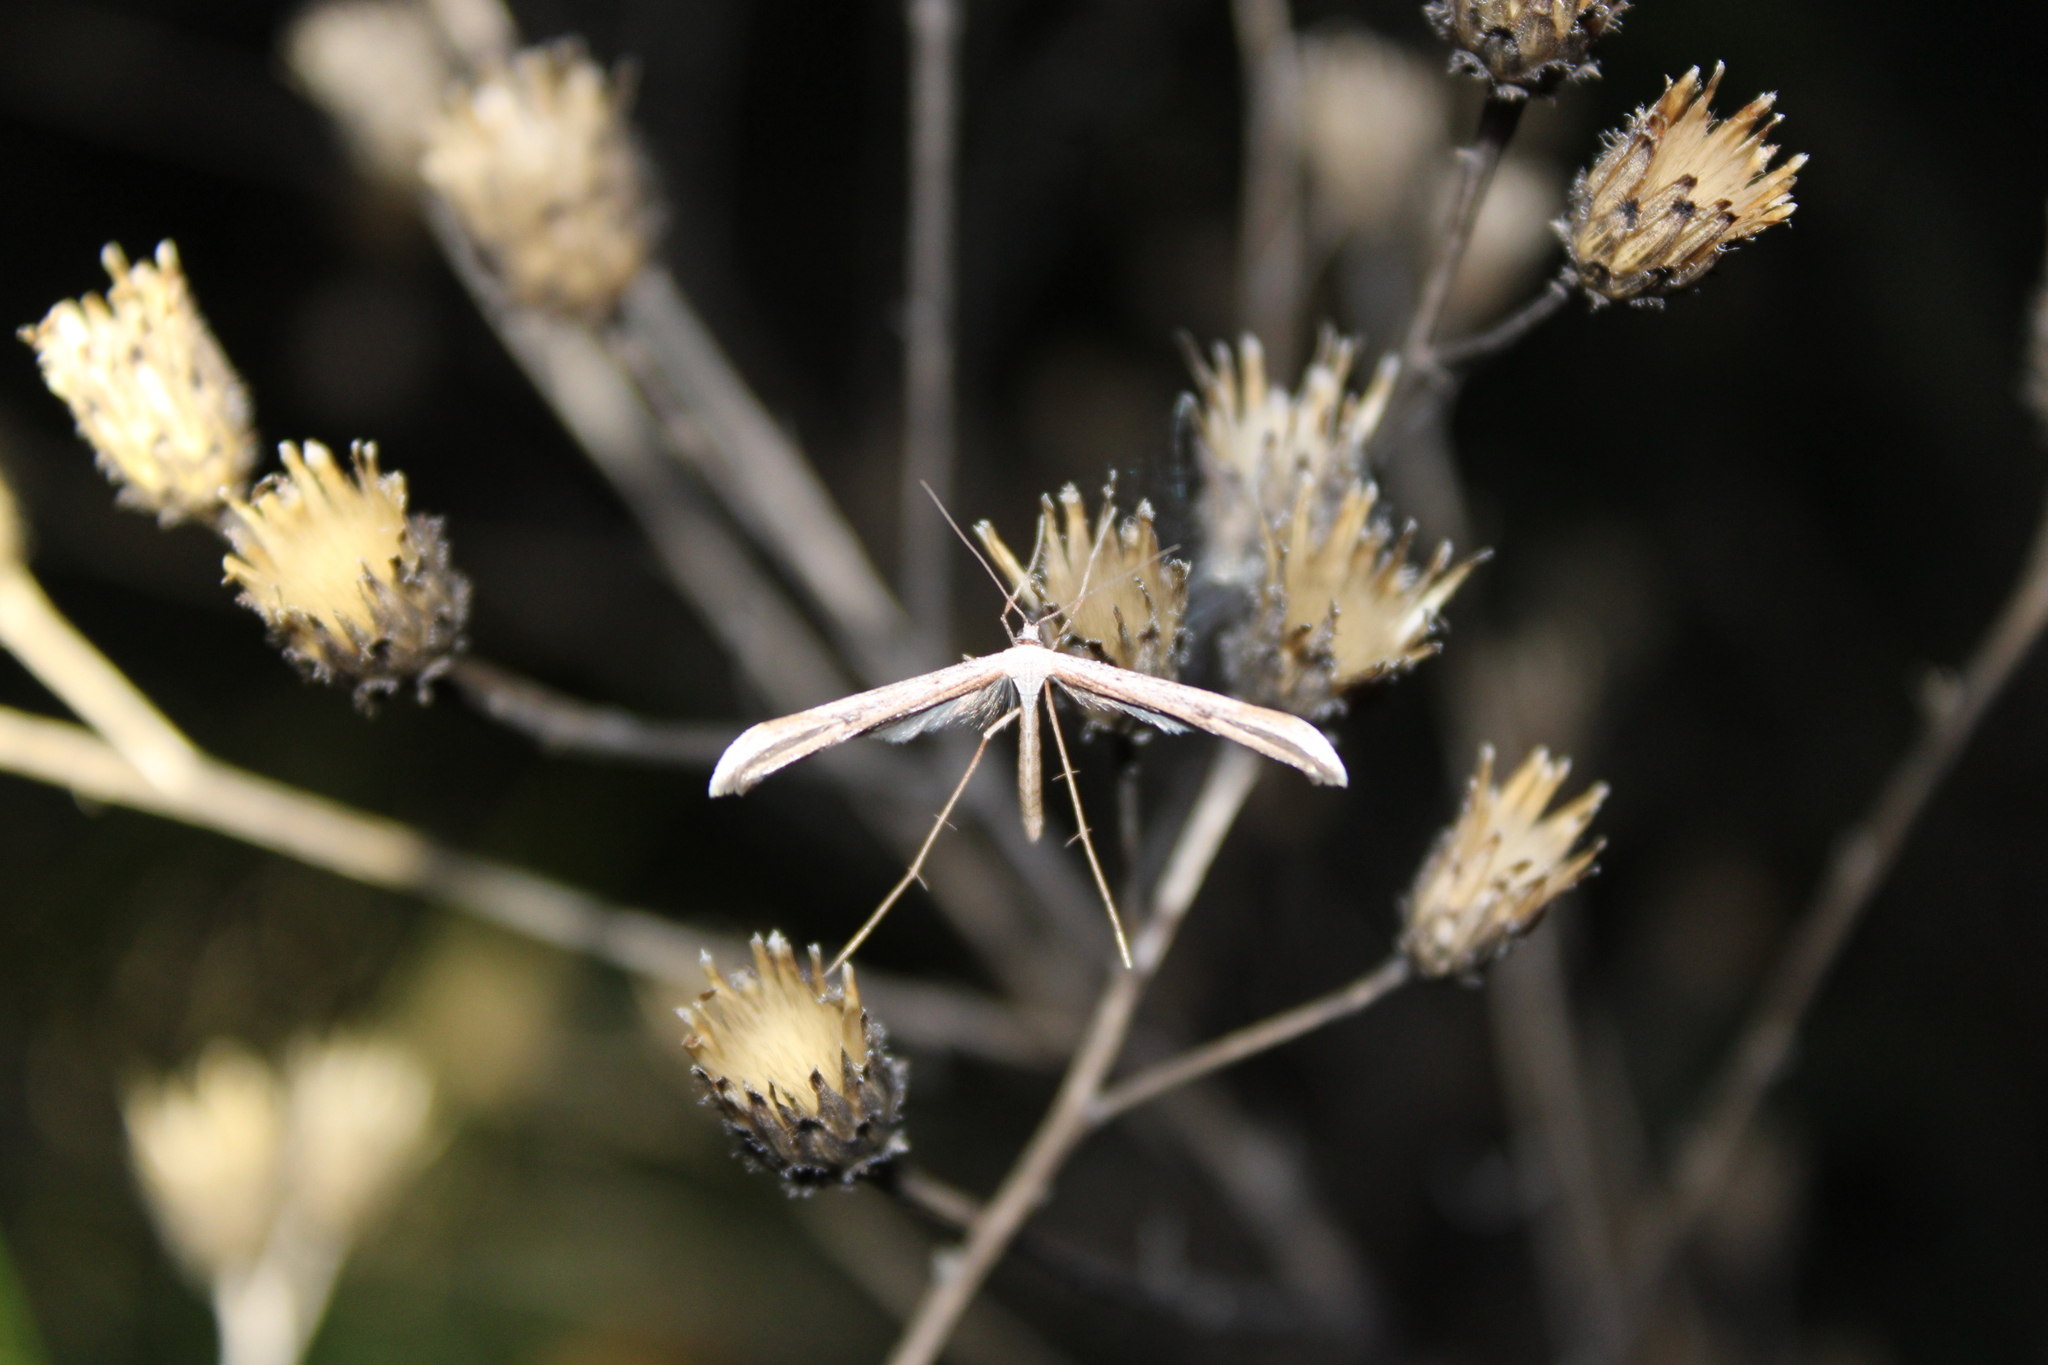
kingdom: Animalia
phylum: Arthropoda
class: Insecta
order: Lepidoptera
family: Pterophoridae
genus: Emmelina
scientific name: Emmelina monodactyla
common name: Common plume
